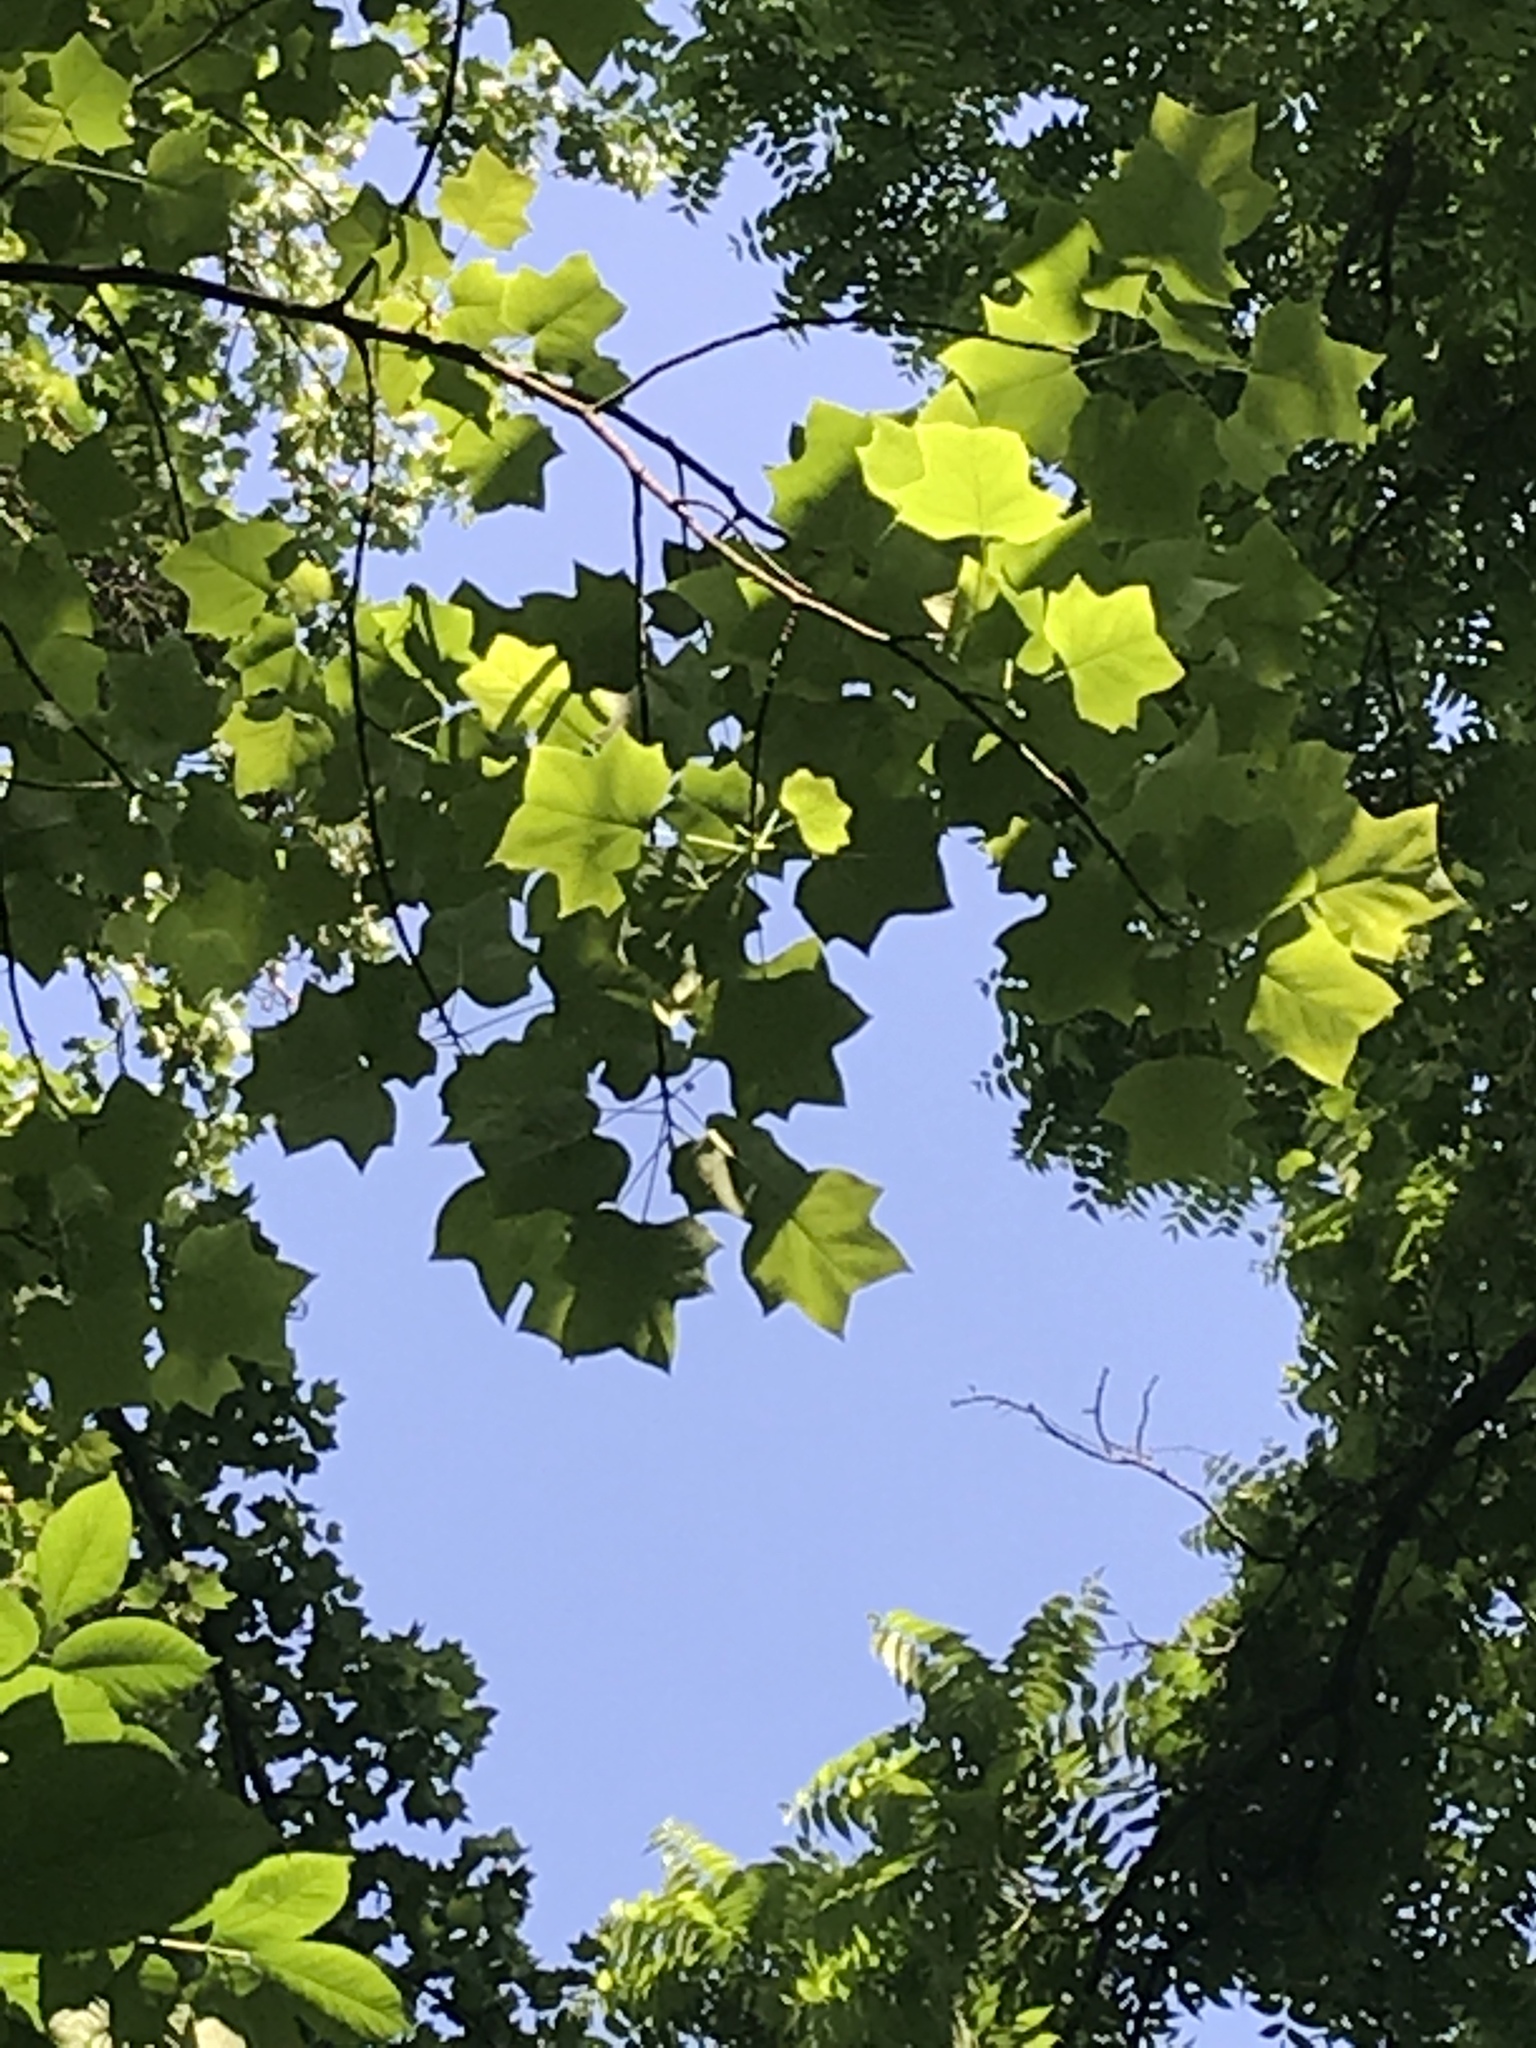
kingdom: Plantae
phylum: Tracheophyta
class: Magnoliopsida
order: Magnoliales
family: Magnoliaceae
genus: Liriodendron
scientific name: Liriodendron tulipifera
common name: Tulip tree
